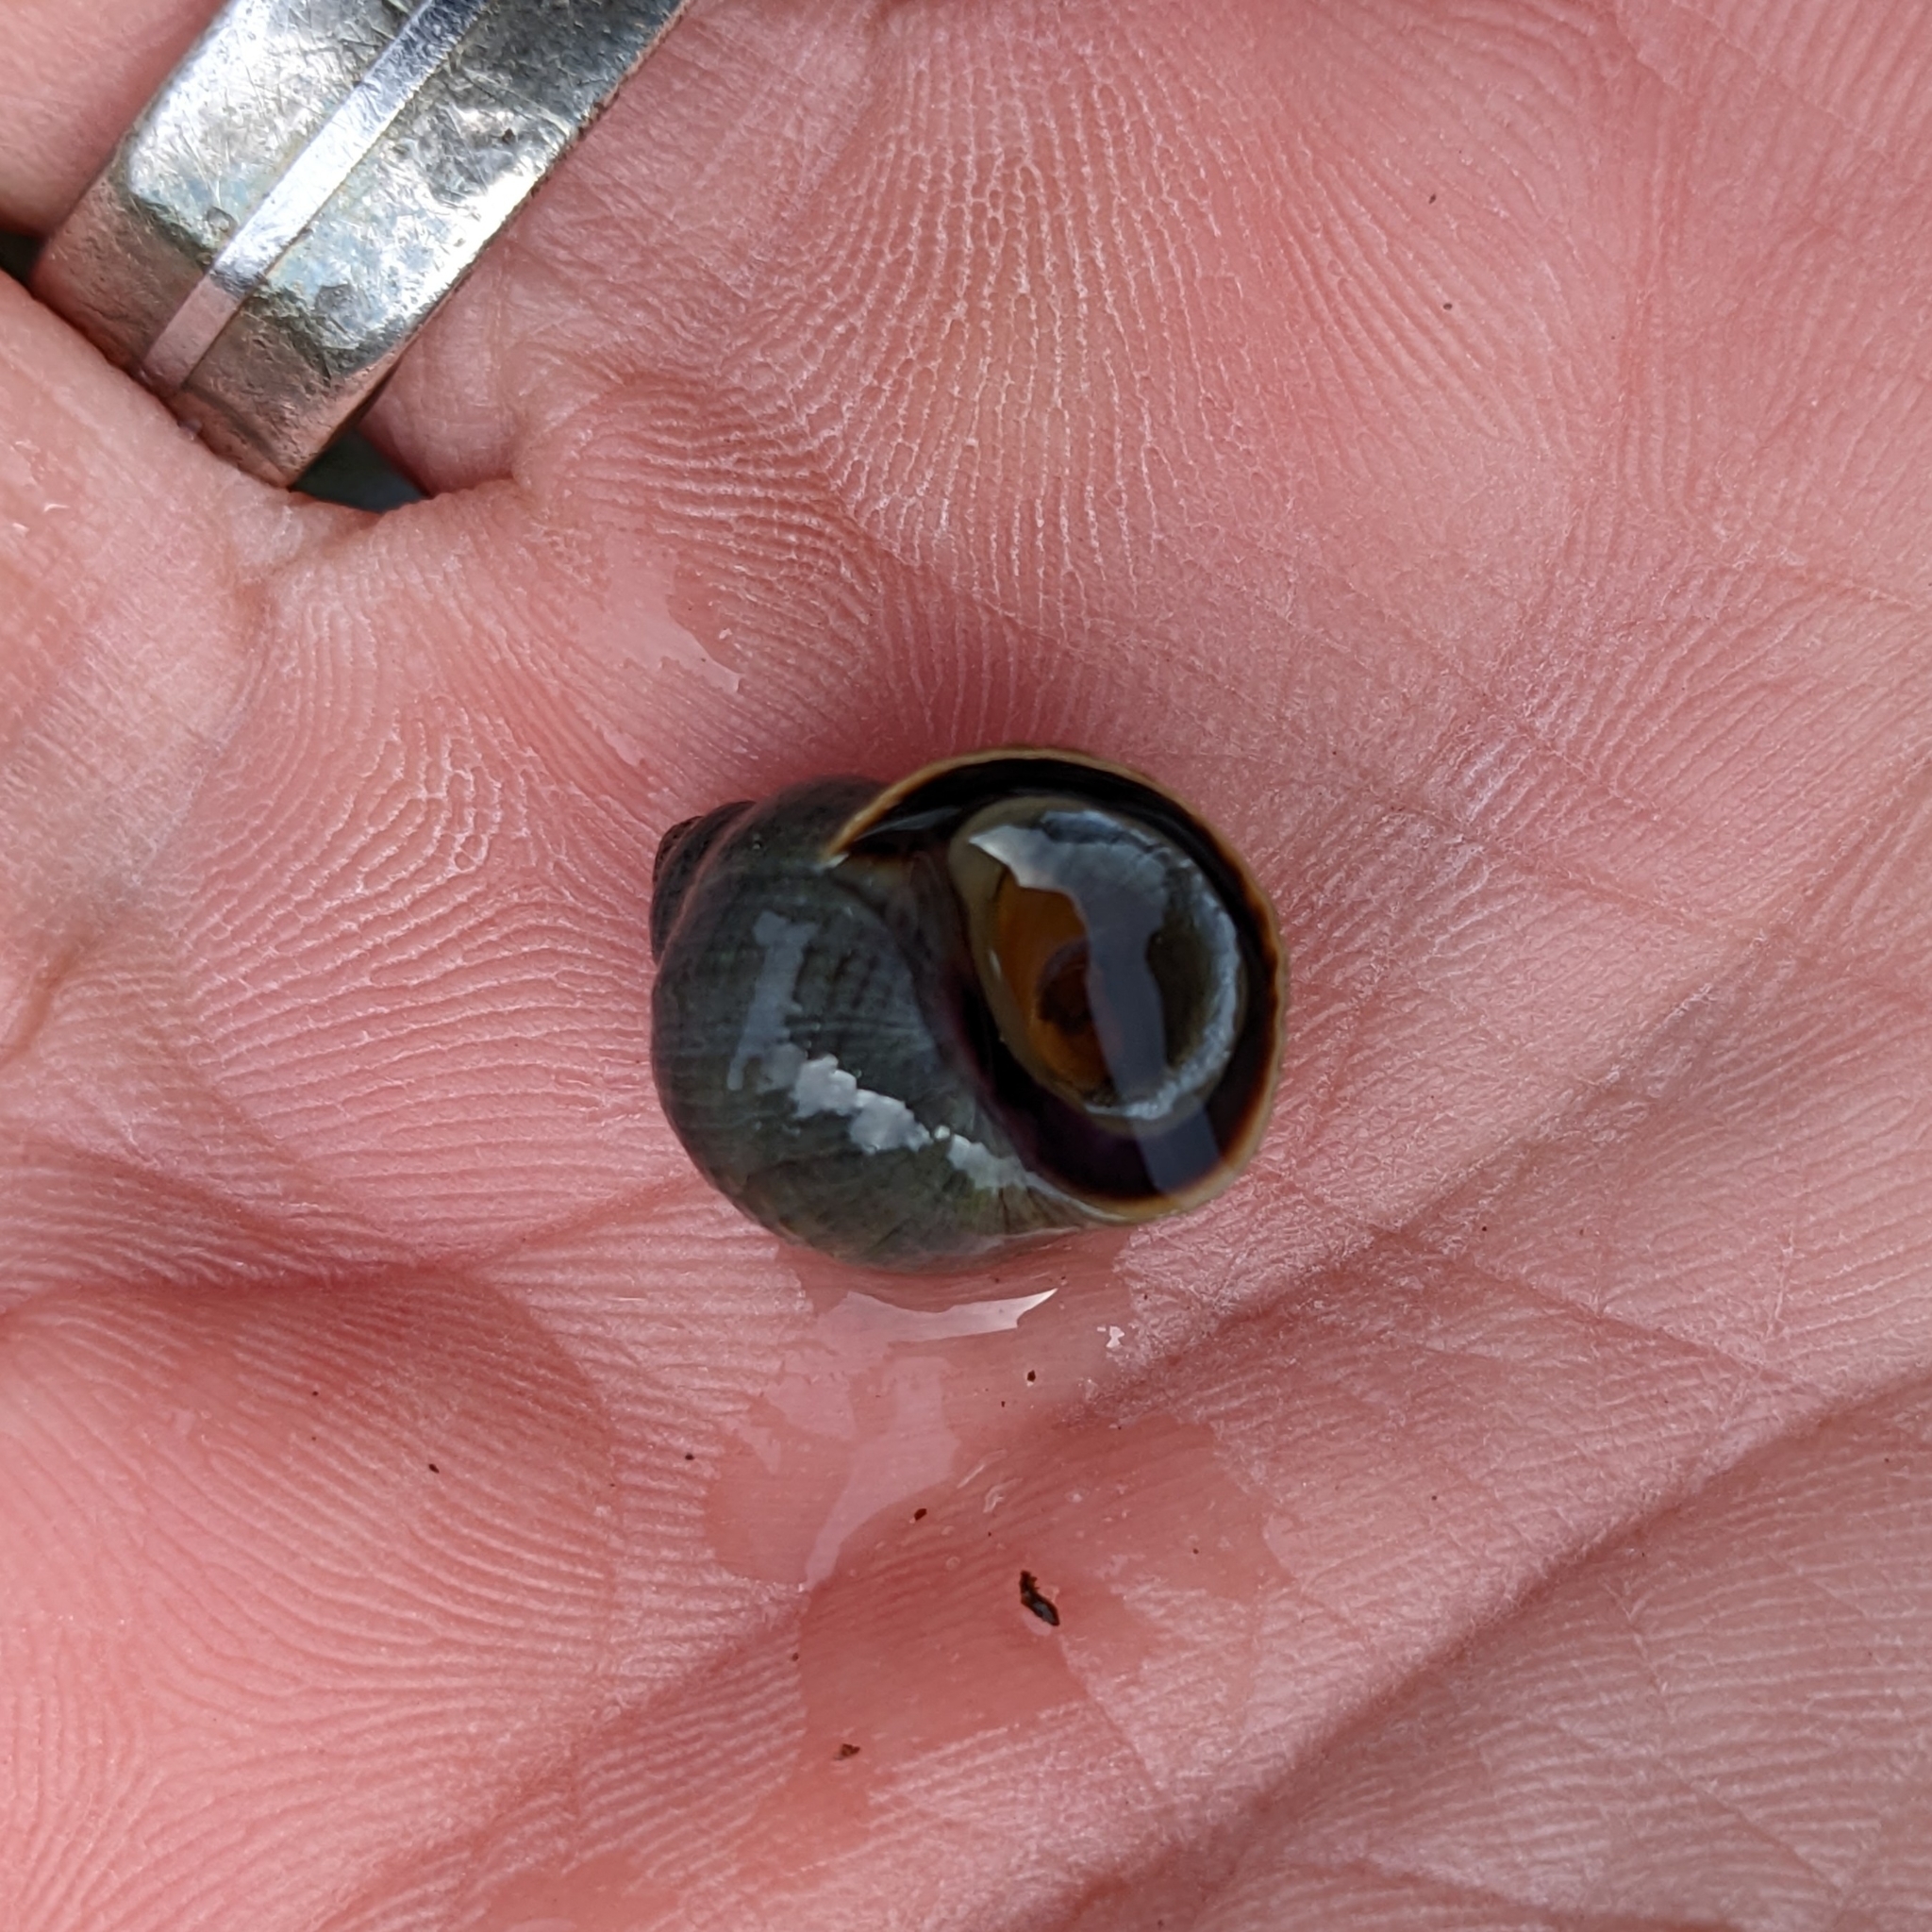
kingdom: Animalia
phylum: Mollusca
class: Gastropoda
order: Littorinimorpha
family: Littorinidae
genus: Littorina
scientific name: Littorina littorea
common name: Common periwinkle
